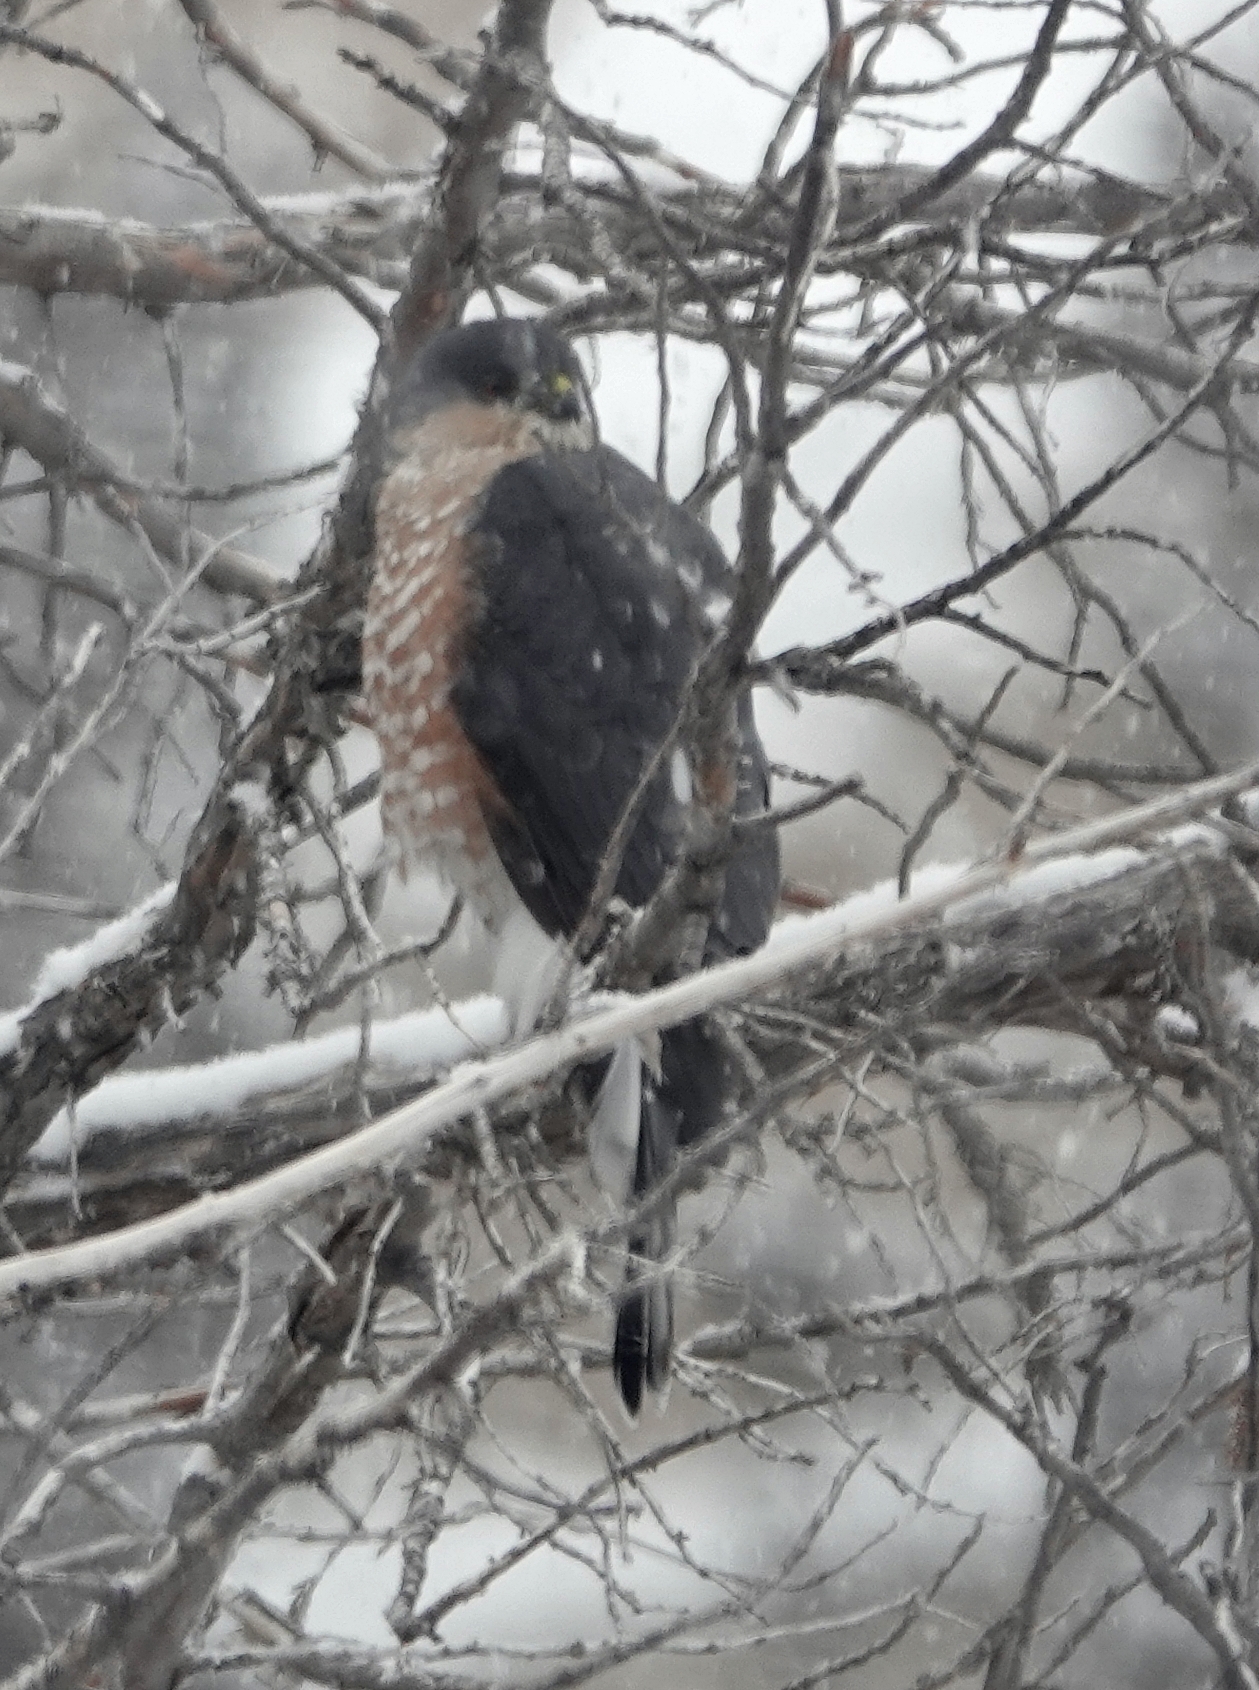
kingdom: Animalia
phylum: Chordata
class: Aves
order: Accipitriformes
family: Accipitridae
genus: Accipiter
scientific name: Accipiter striatus
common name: Sharp-shinned hawk
